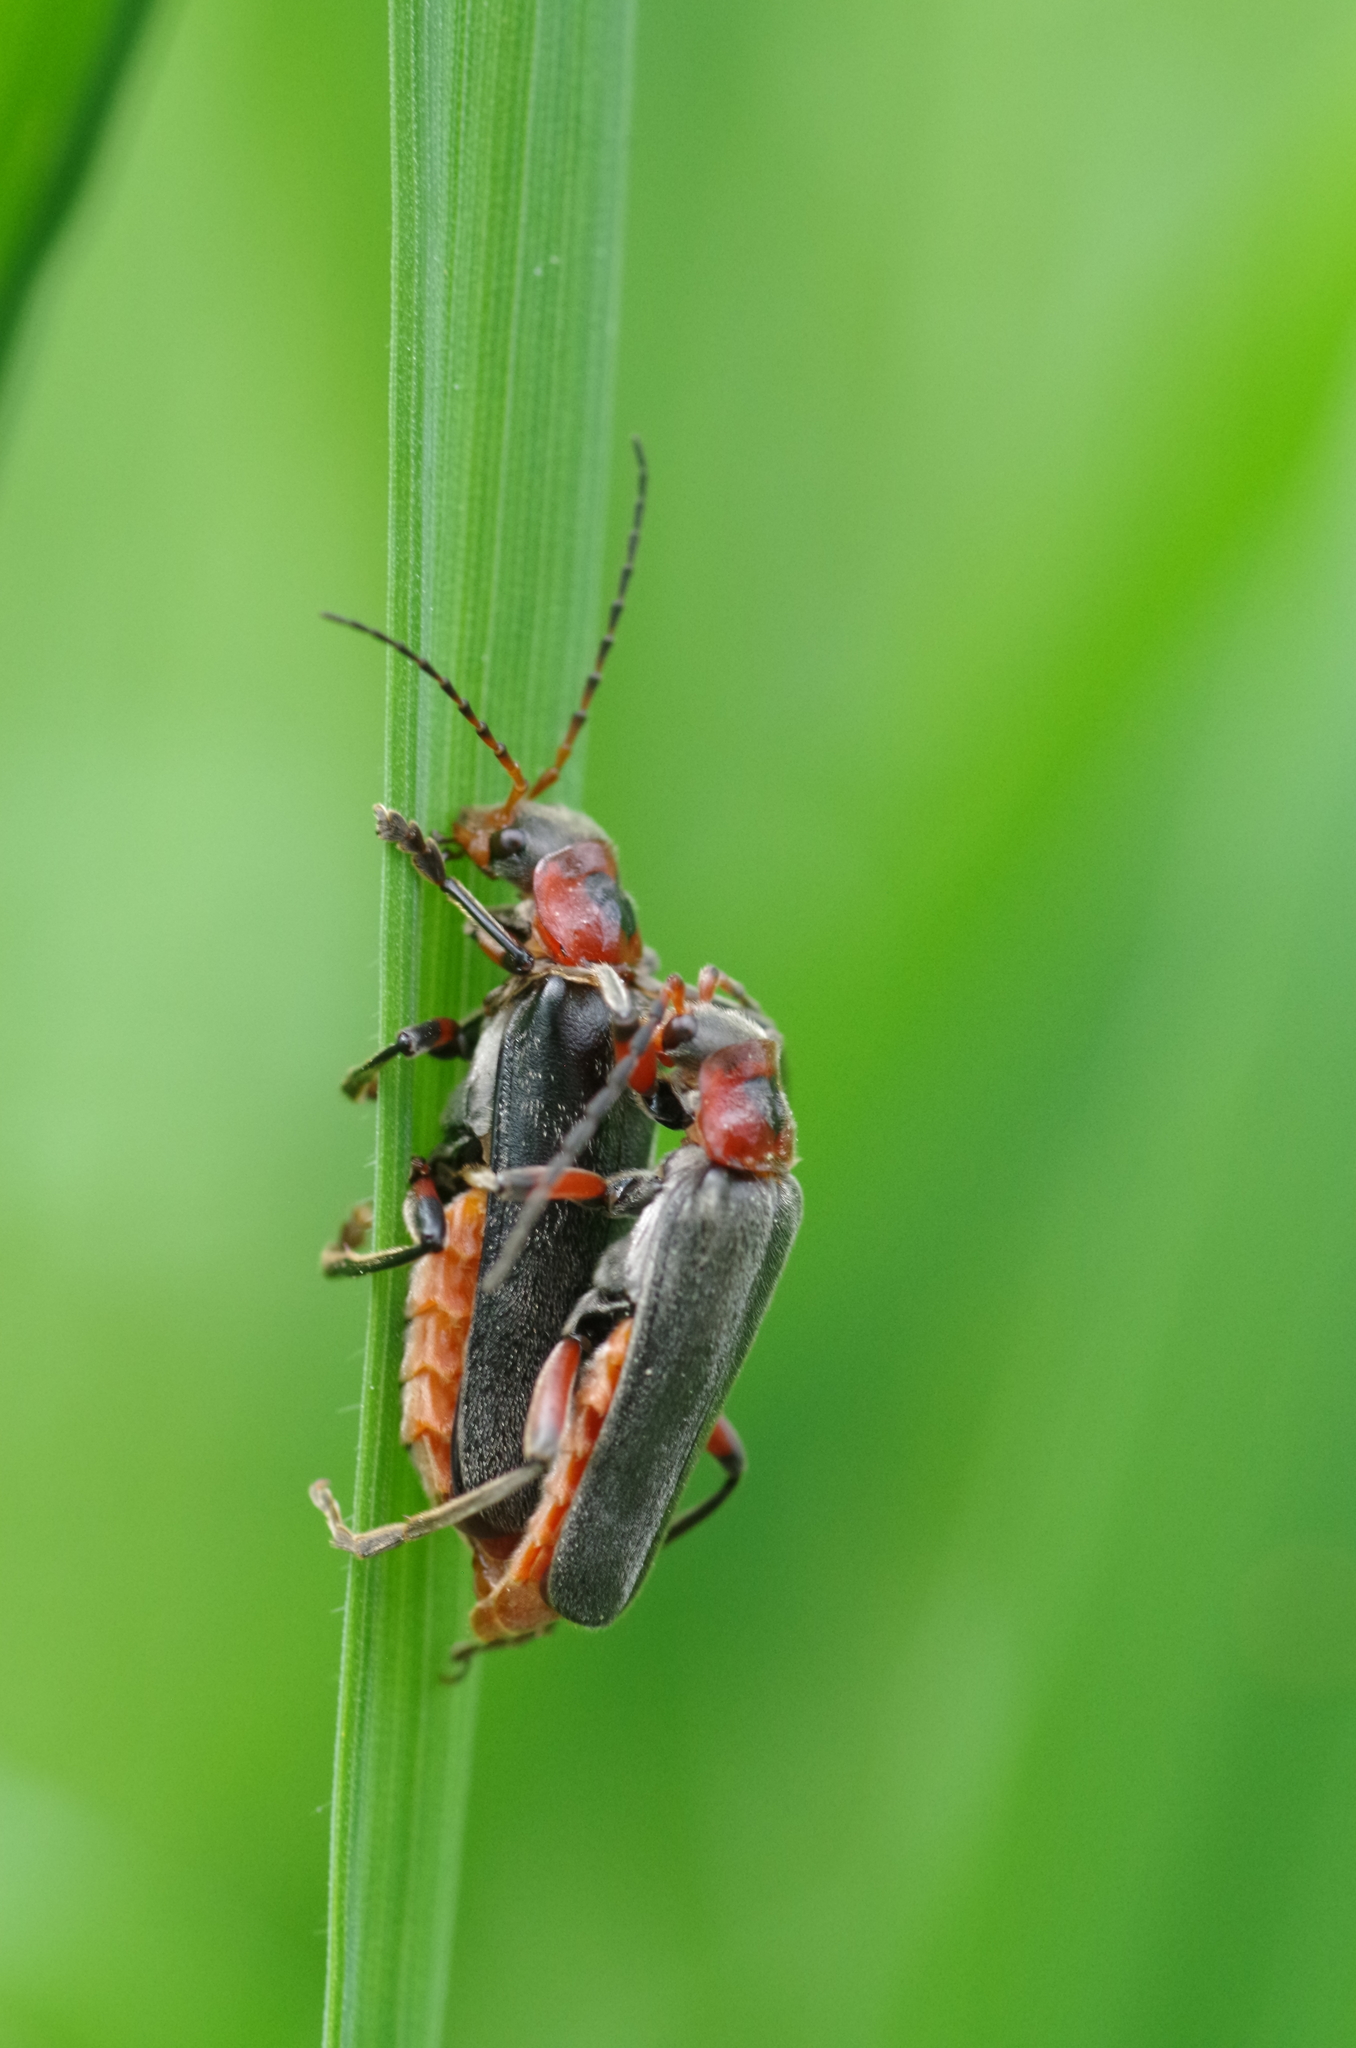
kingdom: Animalia
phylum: Arthropoda
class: Insecta
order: Coleoptera
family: Cantharidae
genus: Cantharis
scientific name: Cantharis rustica
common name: Soldier beetle
